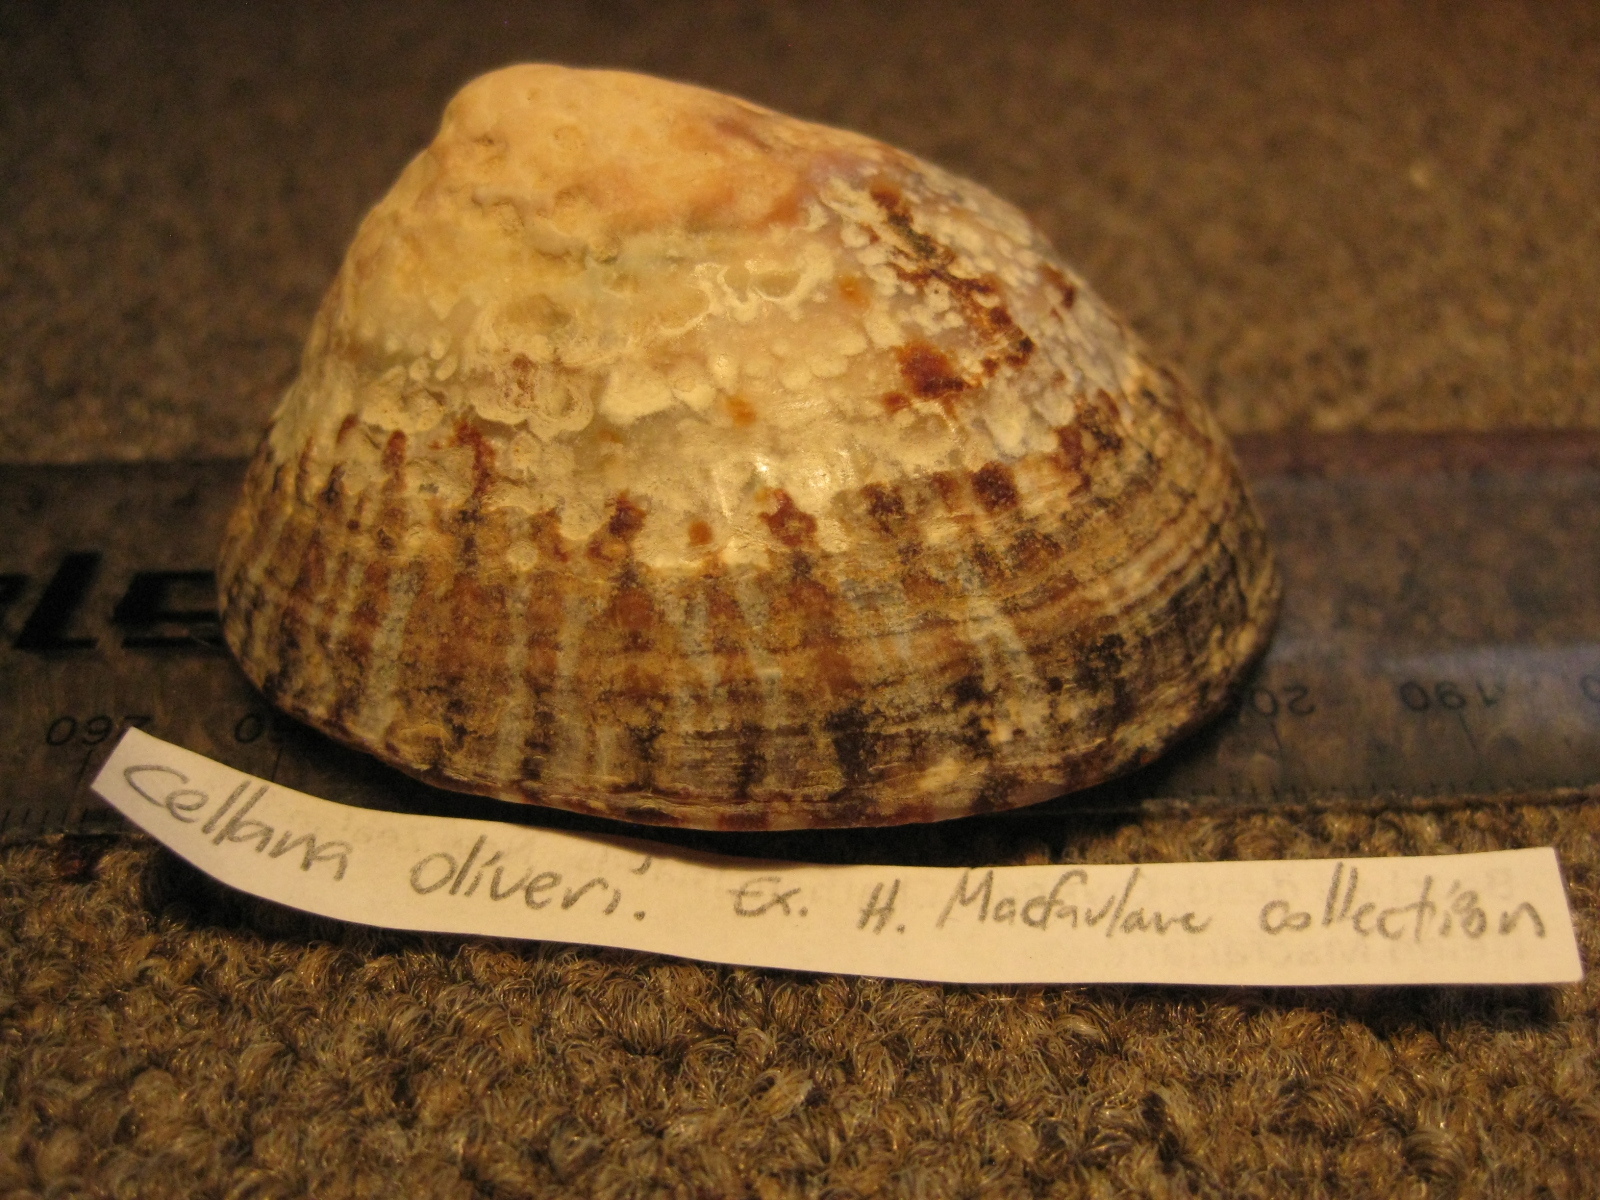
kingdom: Animalia
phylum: Mollusca
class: Gastropoda
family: Nacellidae
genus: Cellana
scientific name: Cellana oliveri
